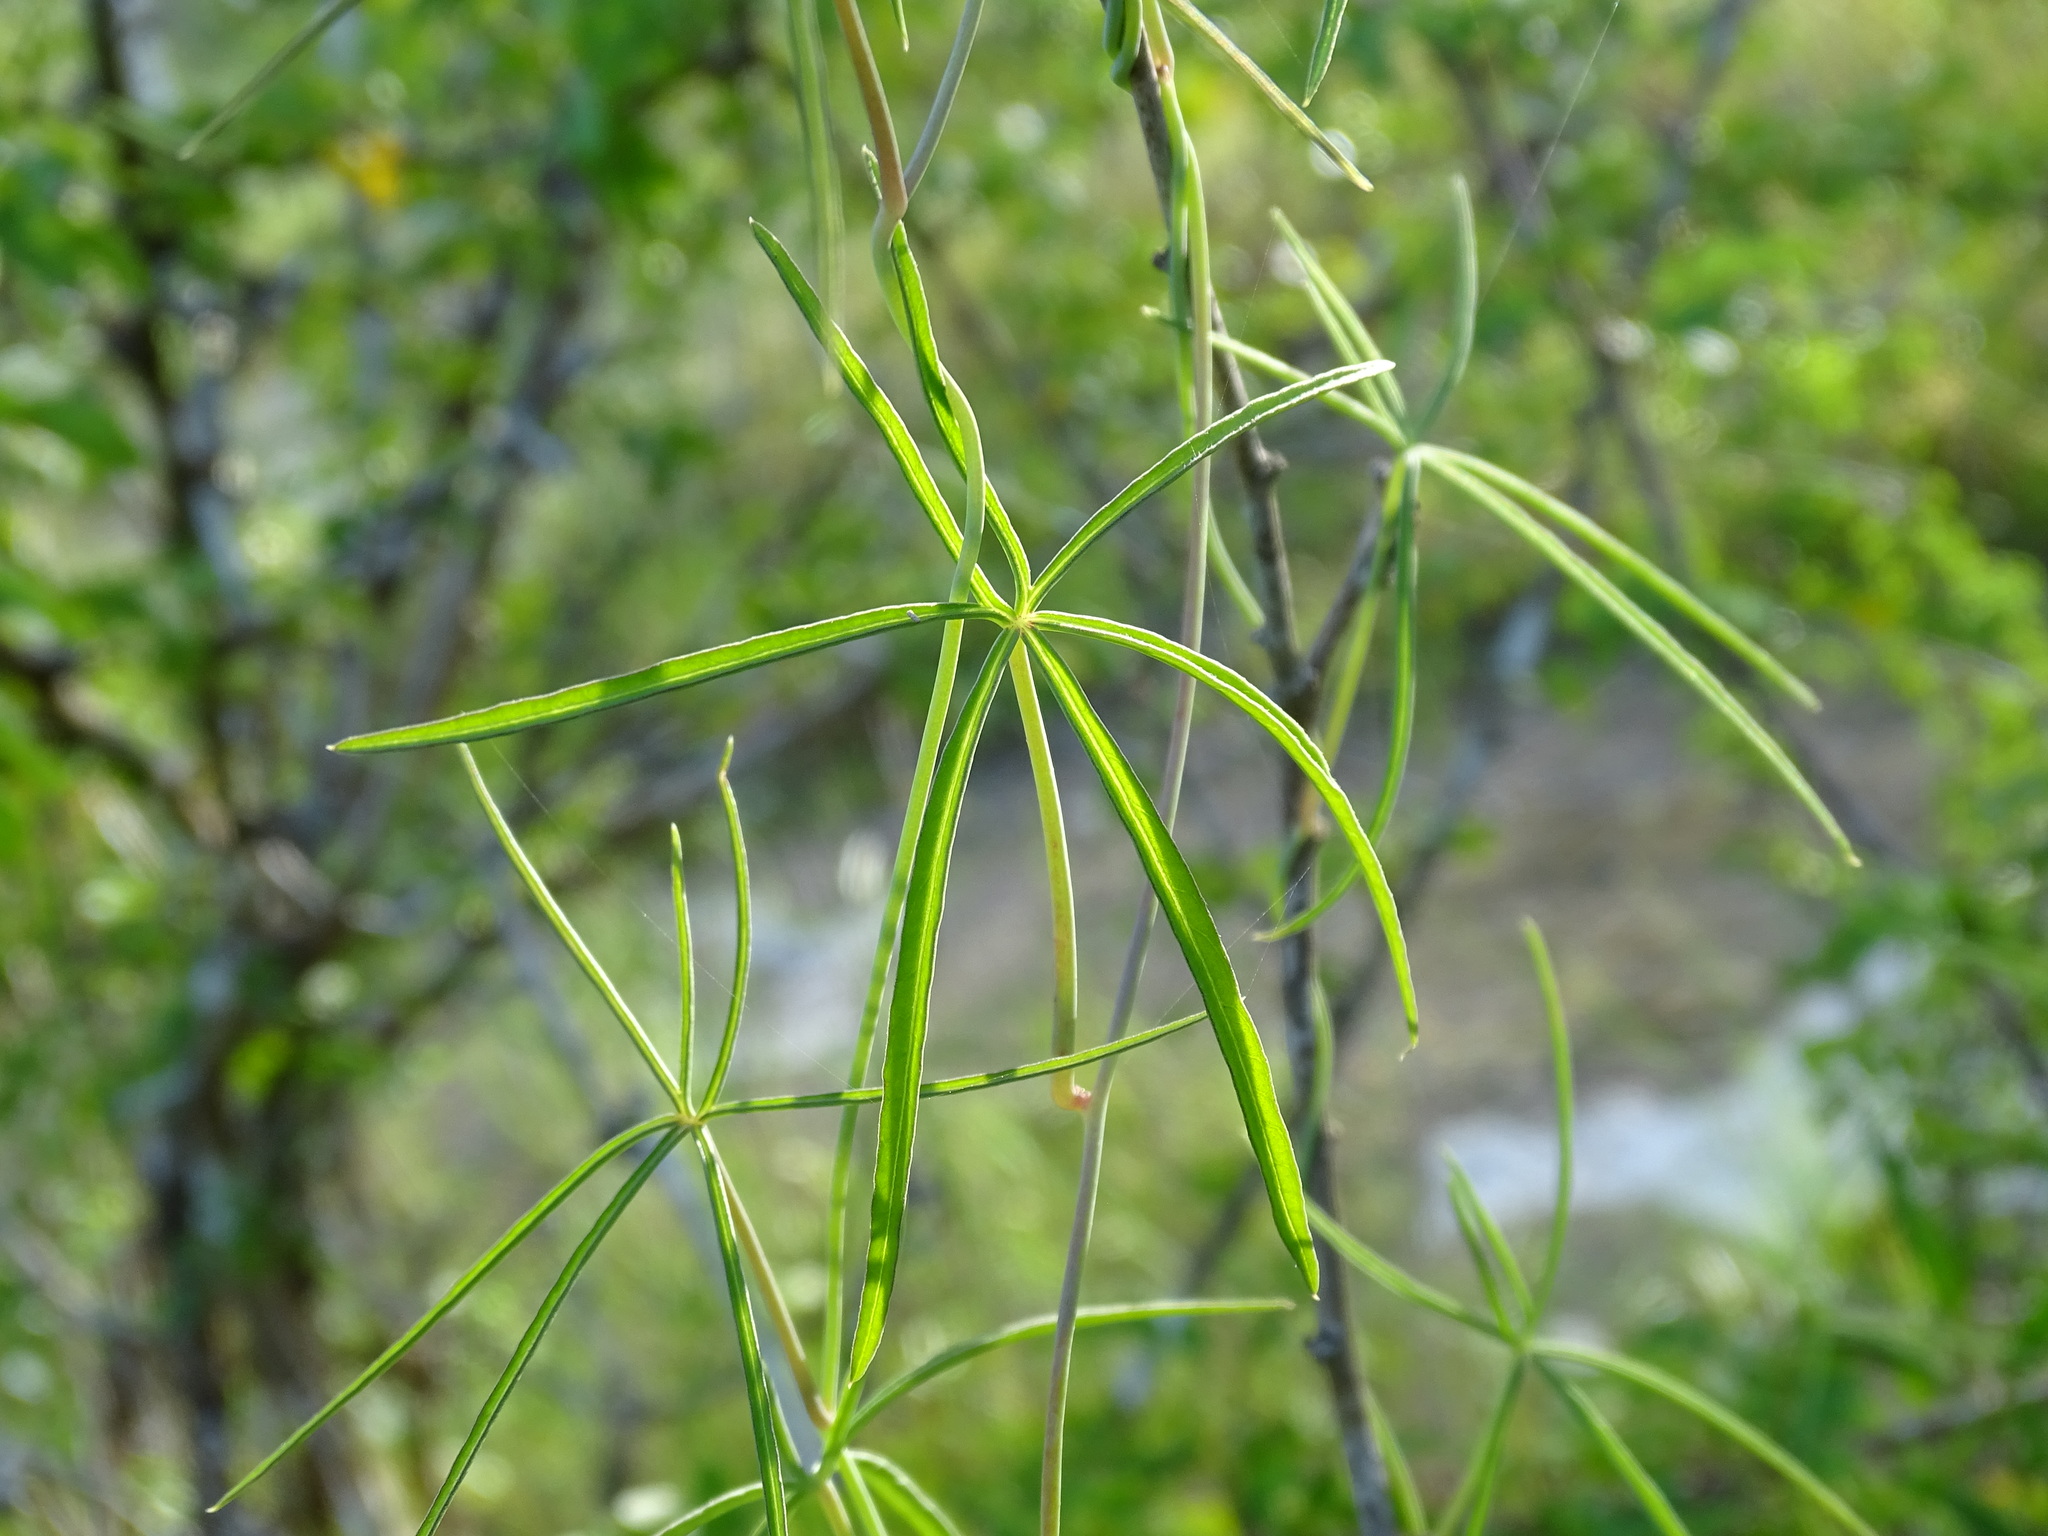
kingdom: Plantae
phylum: Tracheophyta
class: Magnoliopsida
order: Solanales
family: Convolvulaceae
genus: Ipomoea
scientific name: Ipomoea sororia
